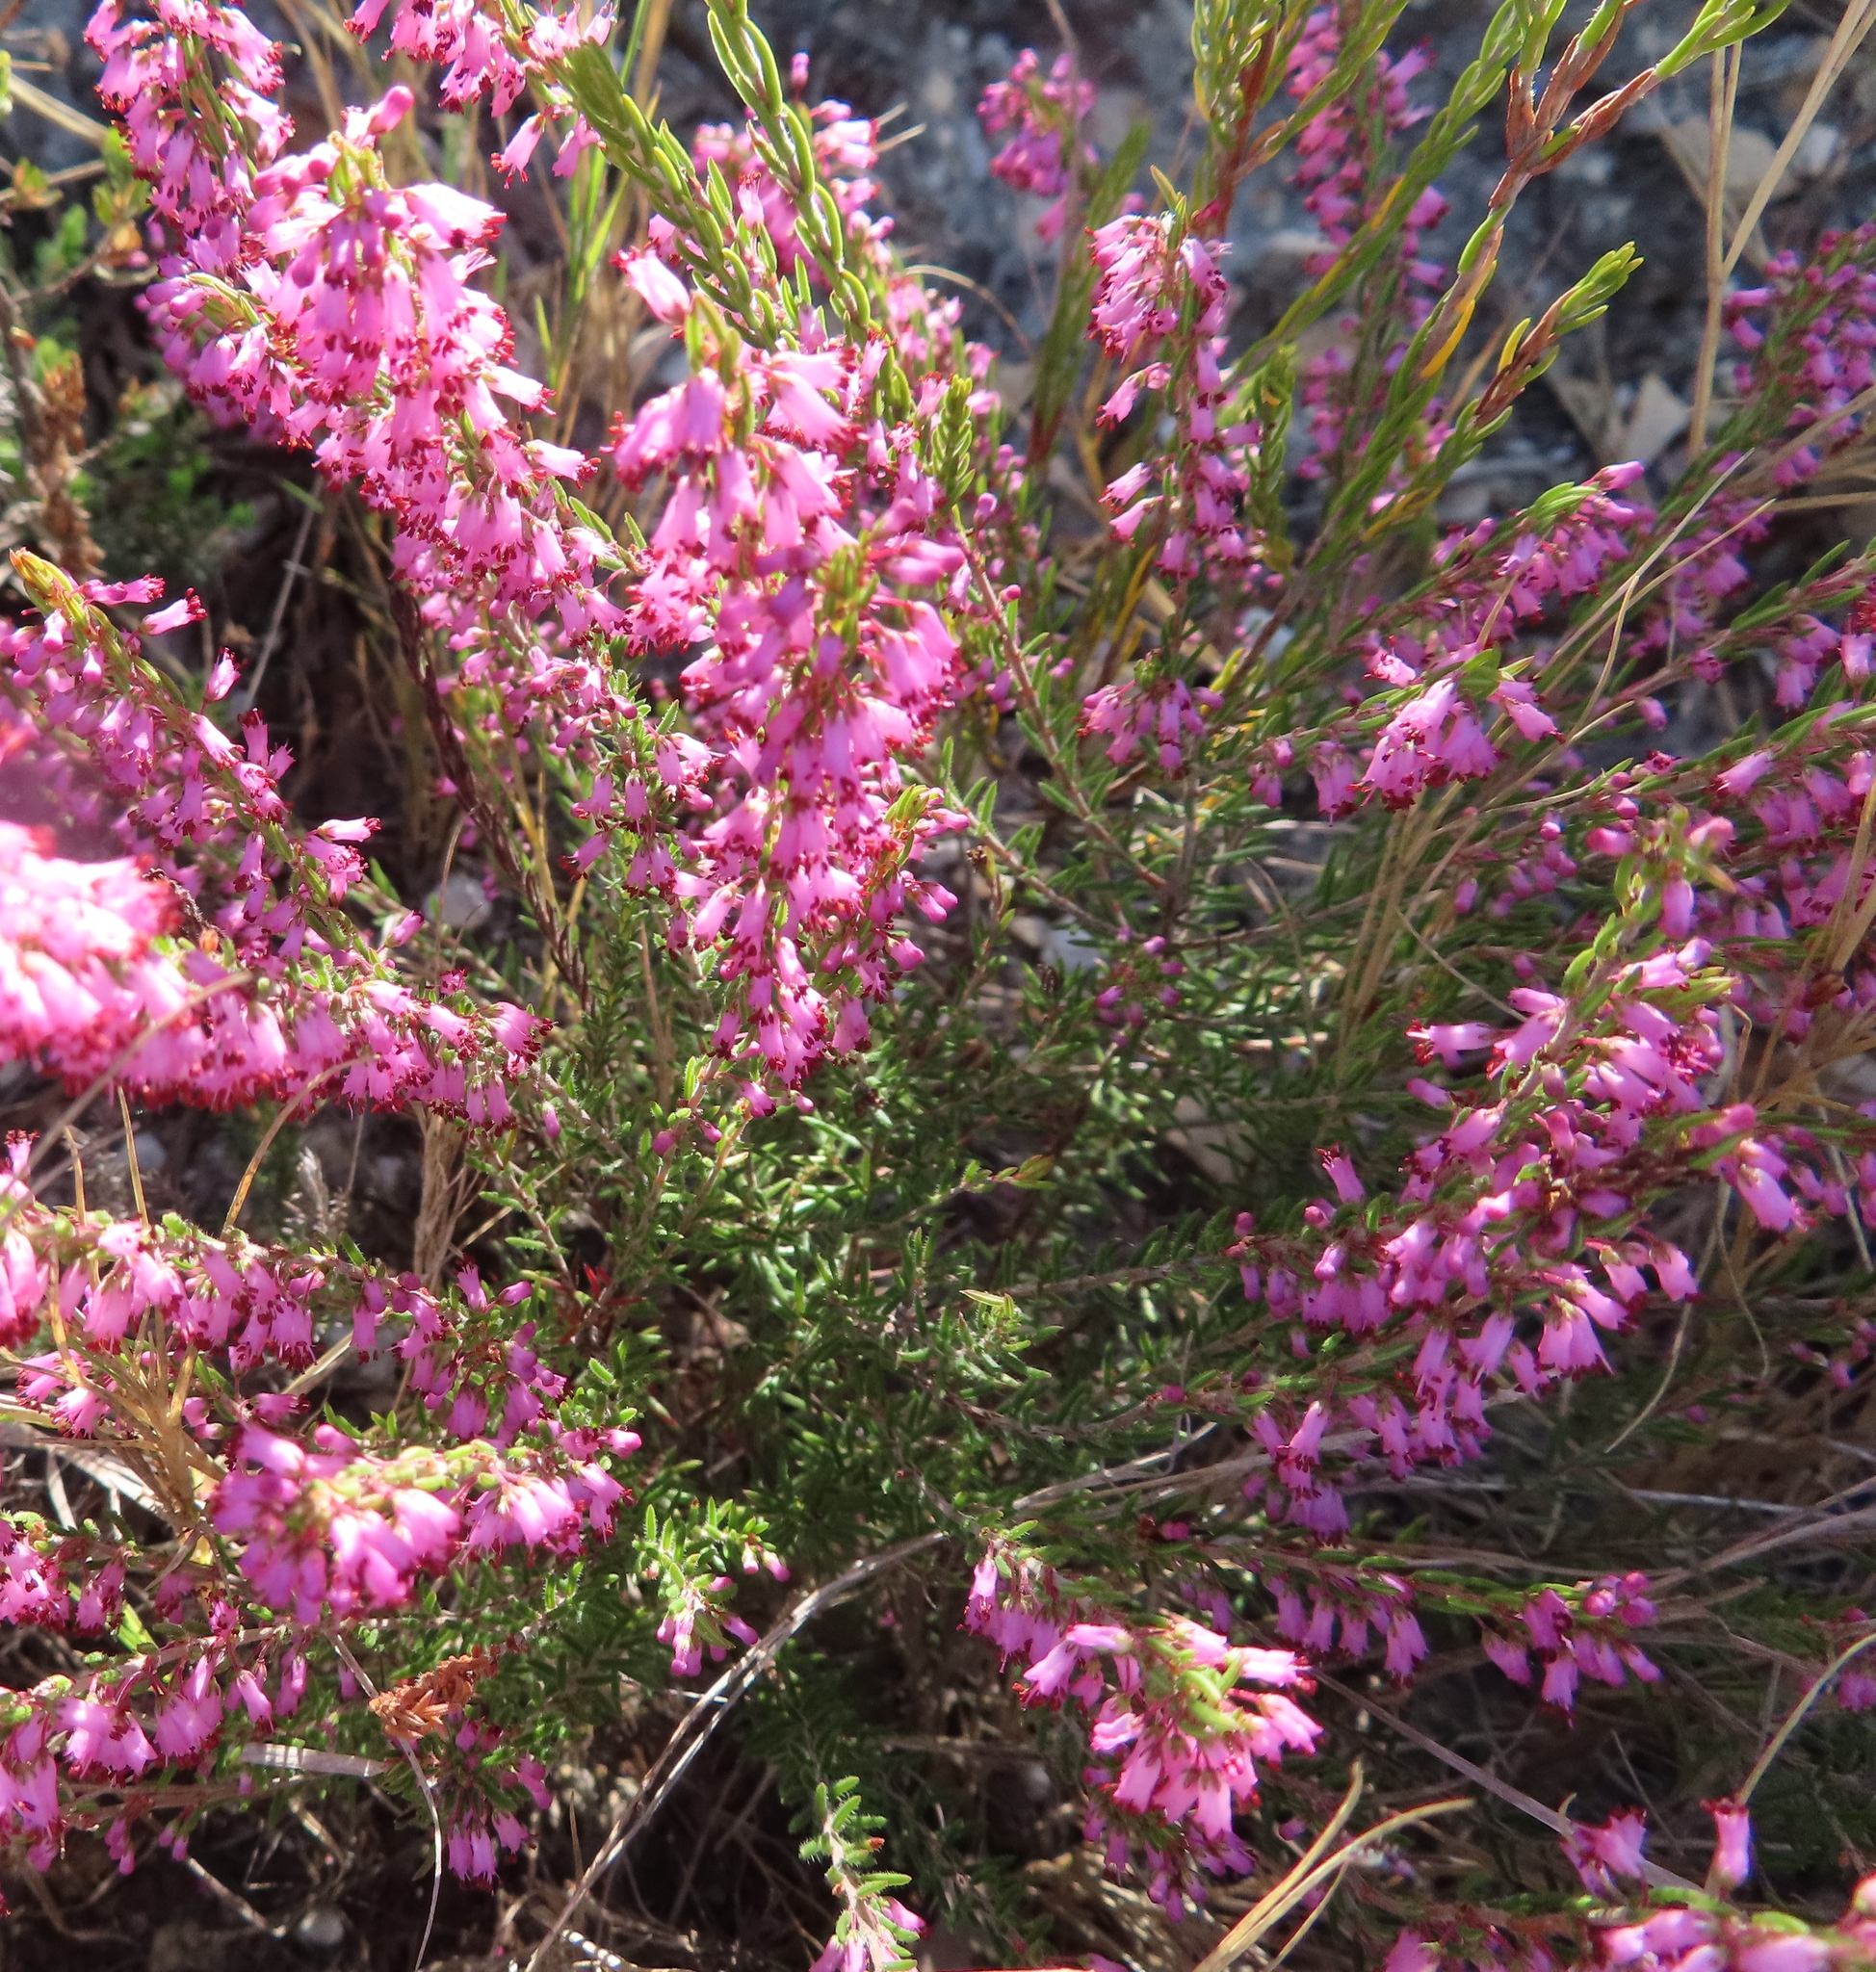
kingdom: Plantae
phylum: Tracheophyta
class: Magnoliopsida
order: Ericales
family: Ericaceae
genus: Erica
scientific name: Erica nudiflora
